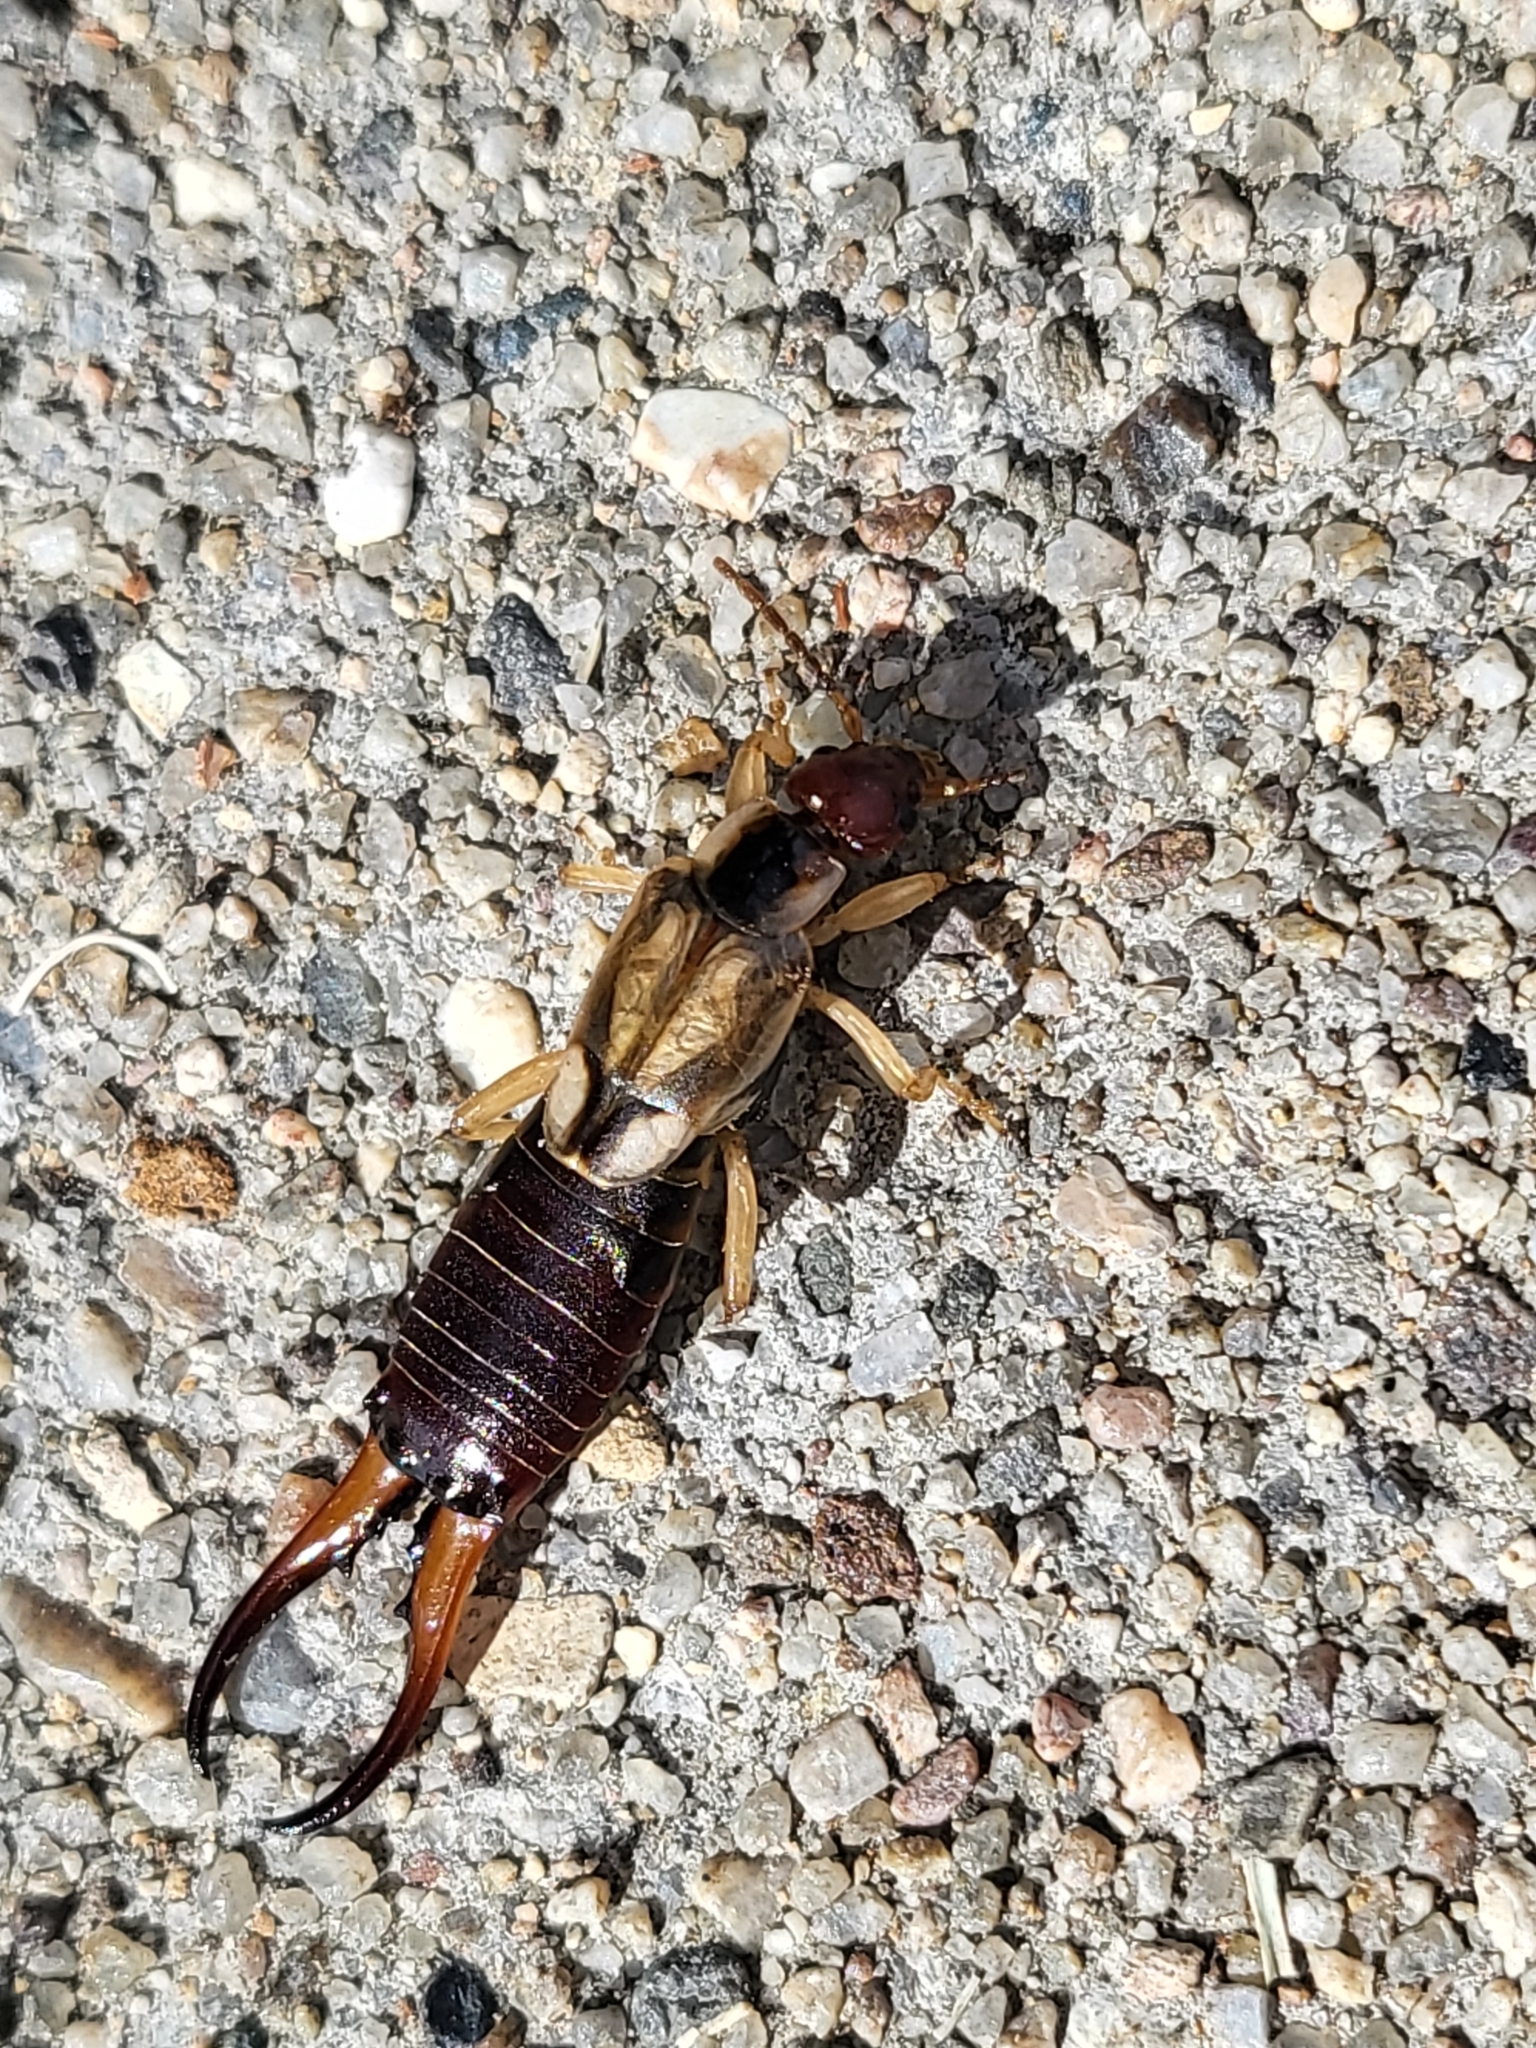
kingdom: Animalia
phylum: Arthropoda
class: Insecta
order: Dermaptera
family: Forficulidae
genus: Forficula
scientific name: Forficula
